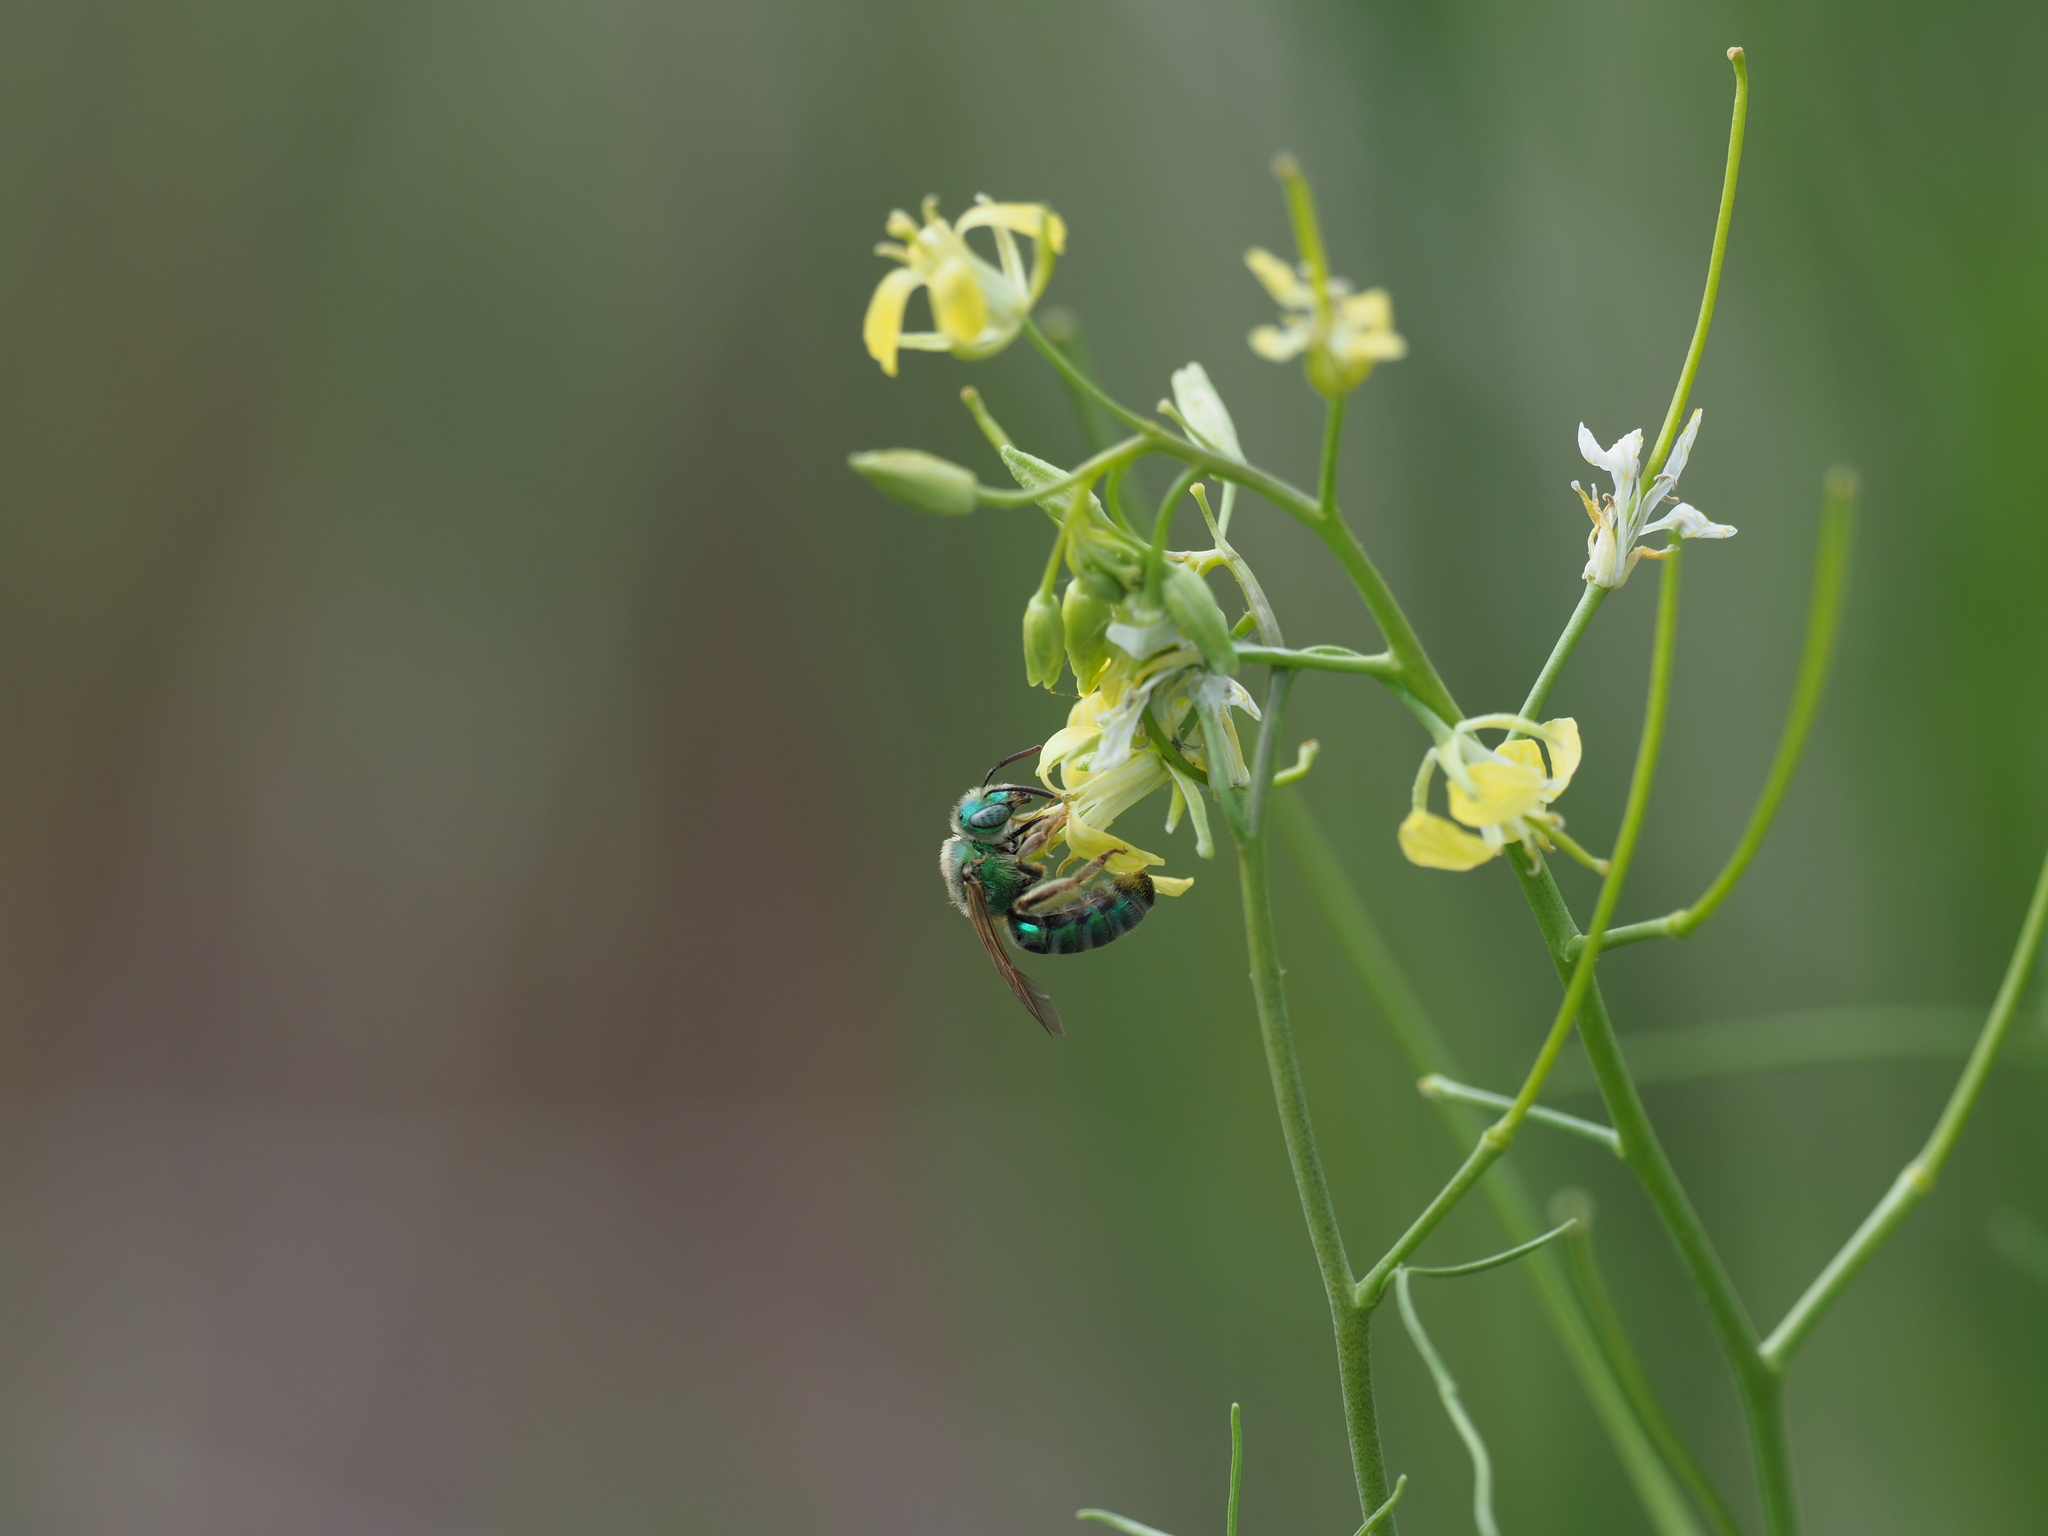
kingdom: Animalia
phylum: Arthropoda
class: Insecta
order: Hymenoptera
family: Halictidae
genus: Agapostemon
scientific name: Agapostemon texanus
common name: Texas striped sweat bee
